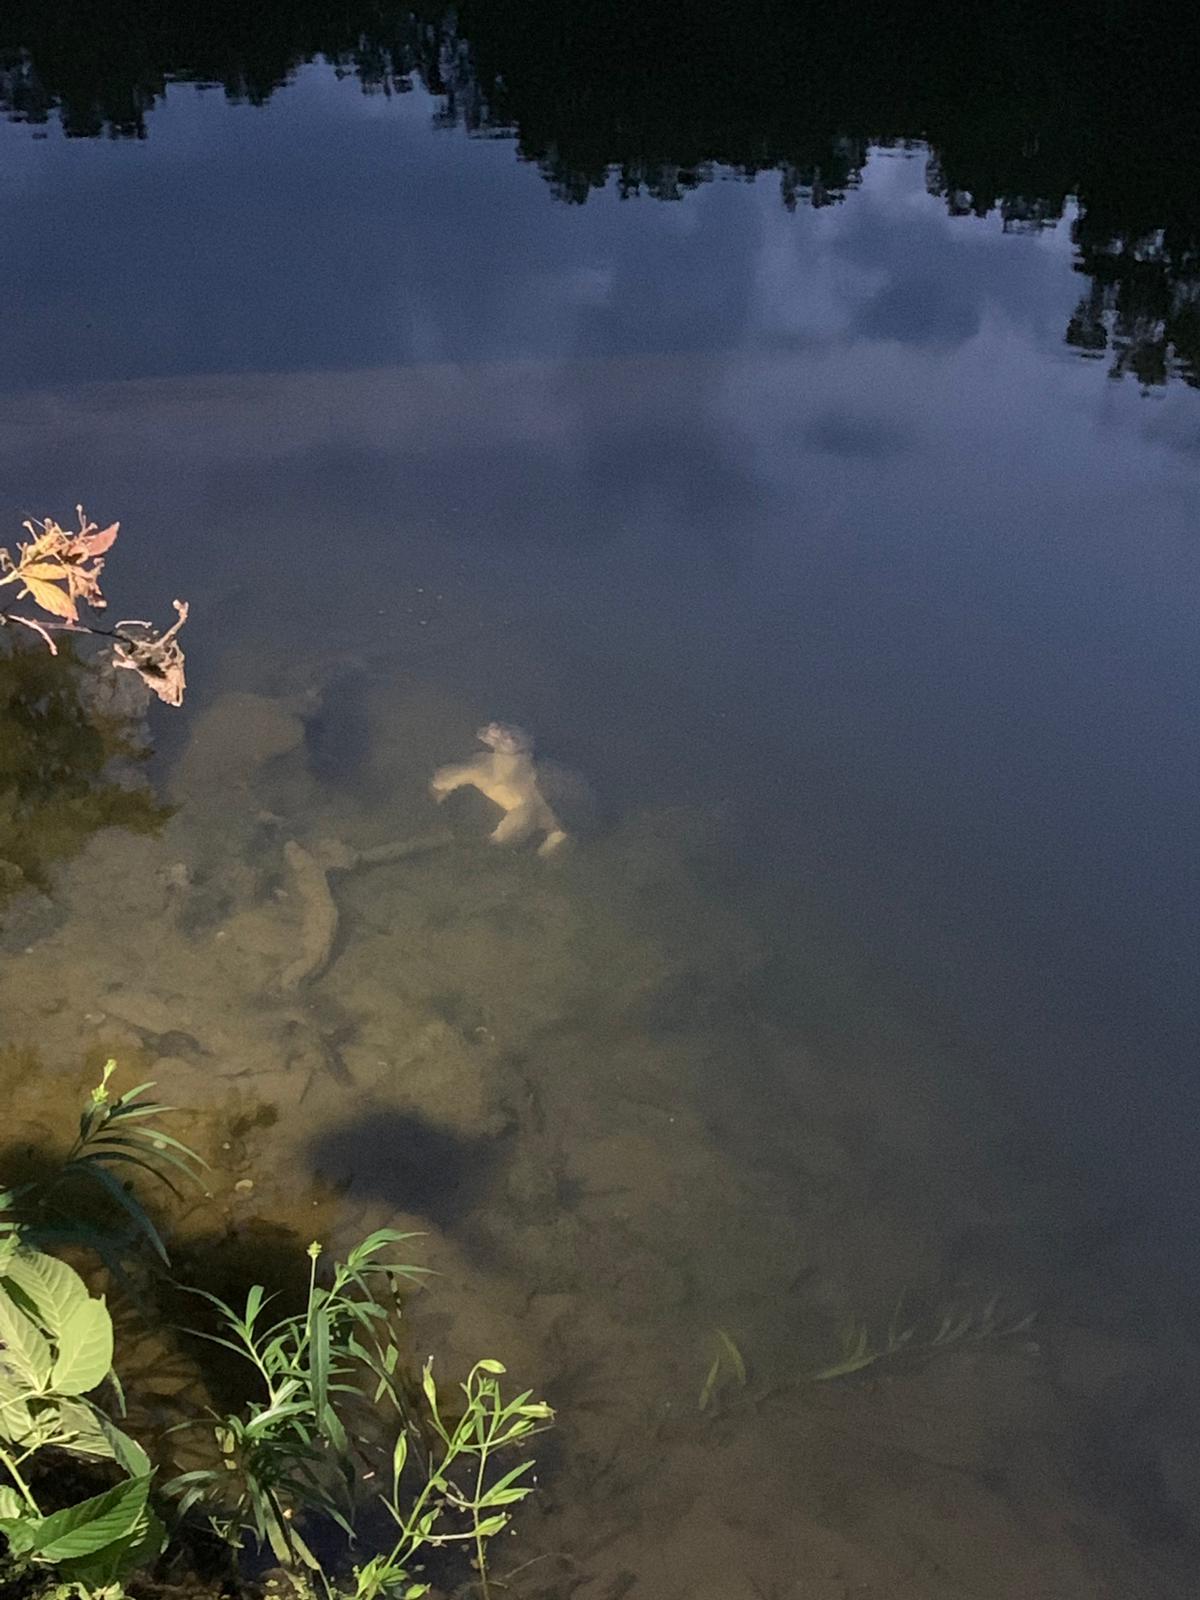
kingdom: Animalia
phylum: Chordata
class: Testudines
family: Chelydridae
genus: Chelydra
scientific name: Chelydra serpentina
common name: Common snapping turtle
